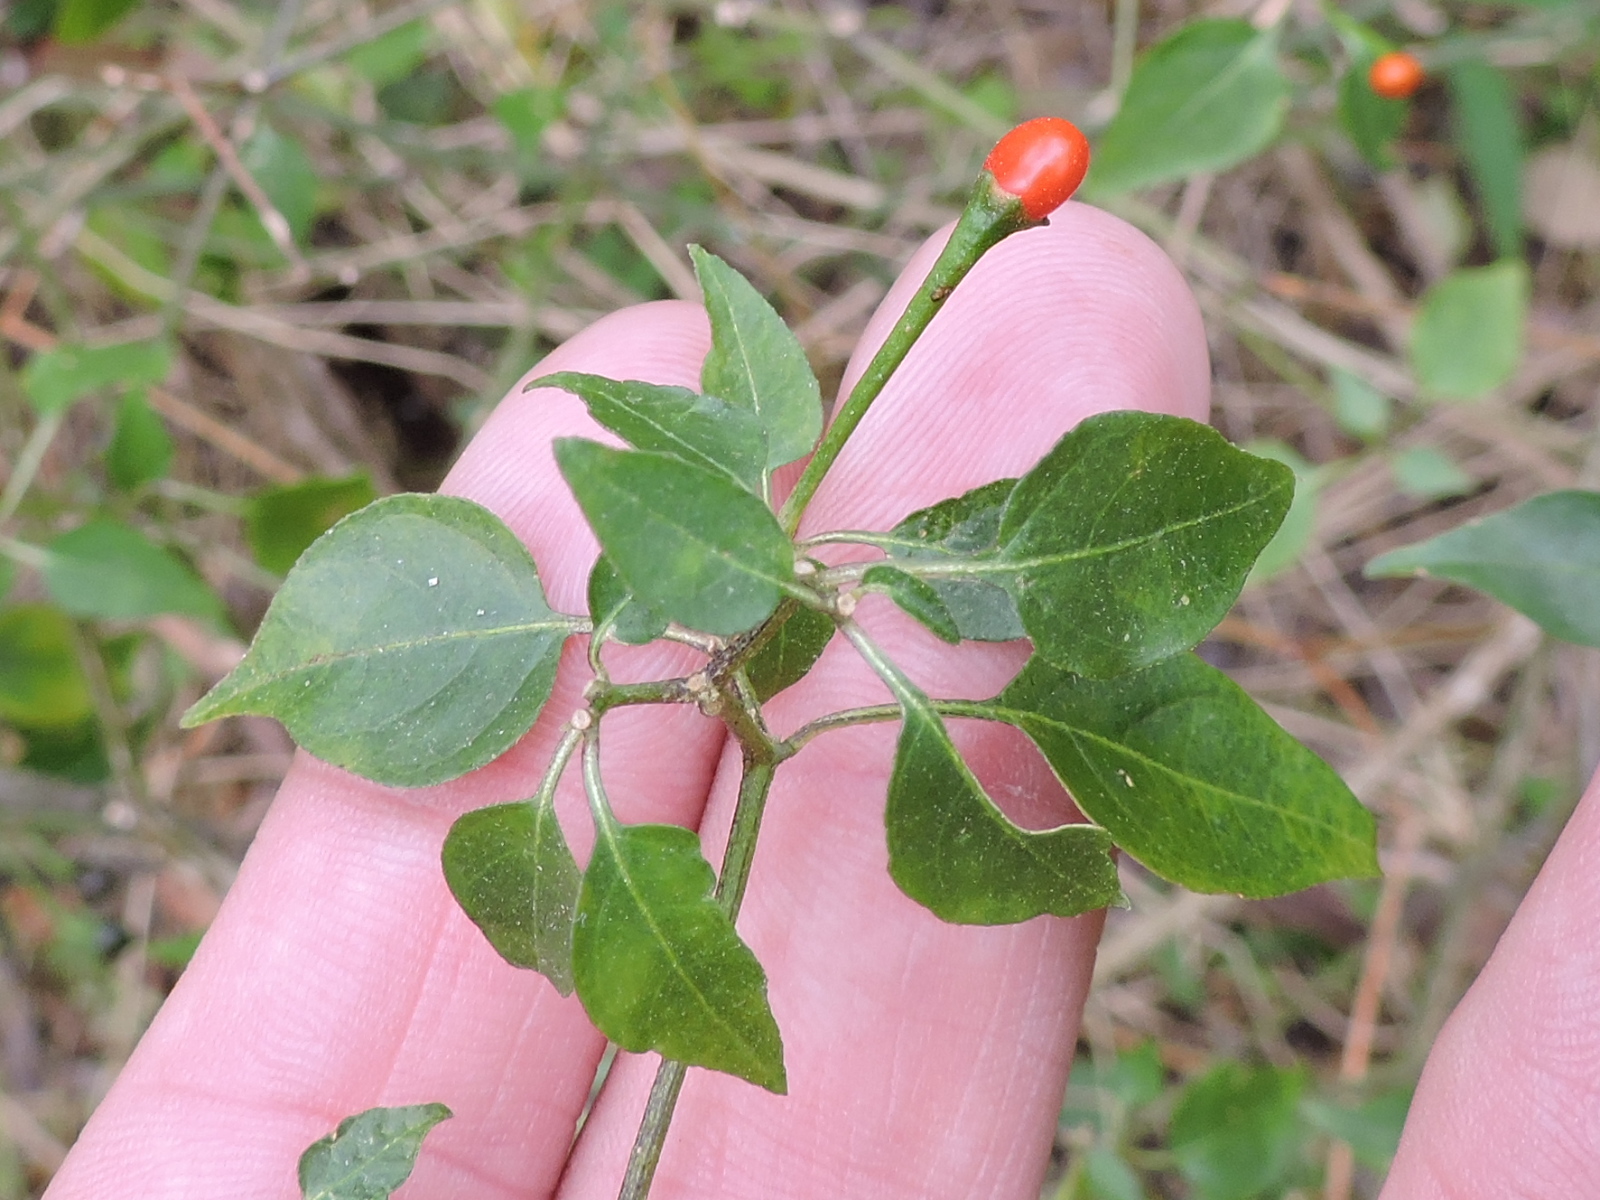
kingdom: Plantae
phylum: Tracheophyta
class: Magnoliopsida
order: Solanales
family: Solanaceae
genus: Capsicum
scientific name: Capsicum annuum
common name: Sweet pepper
